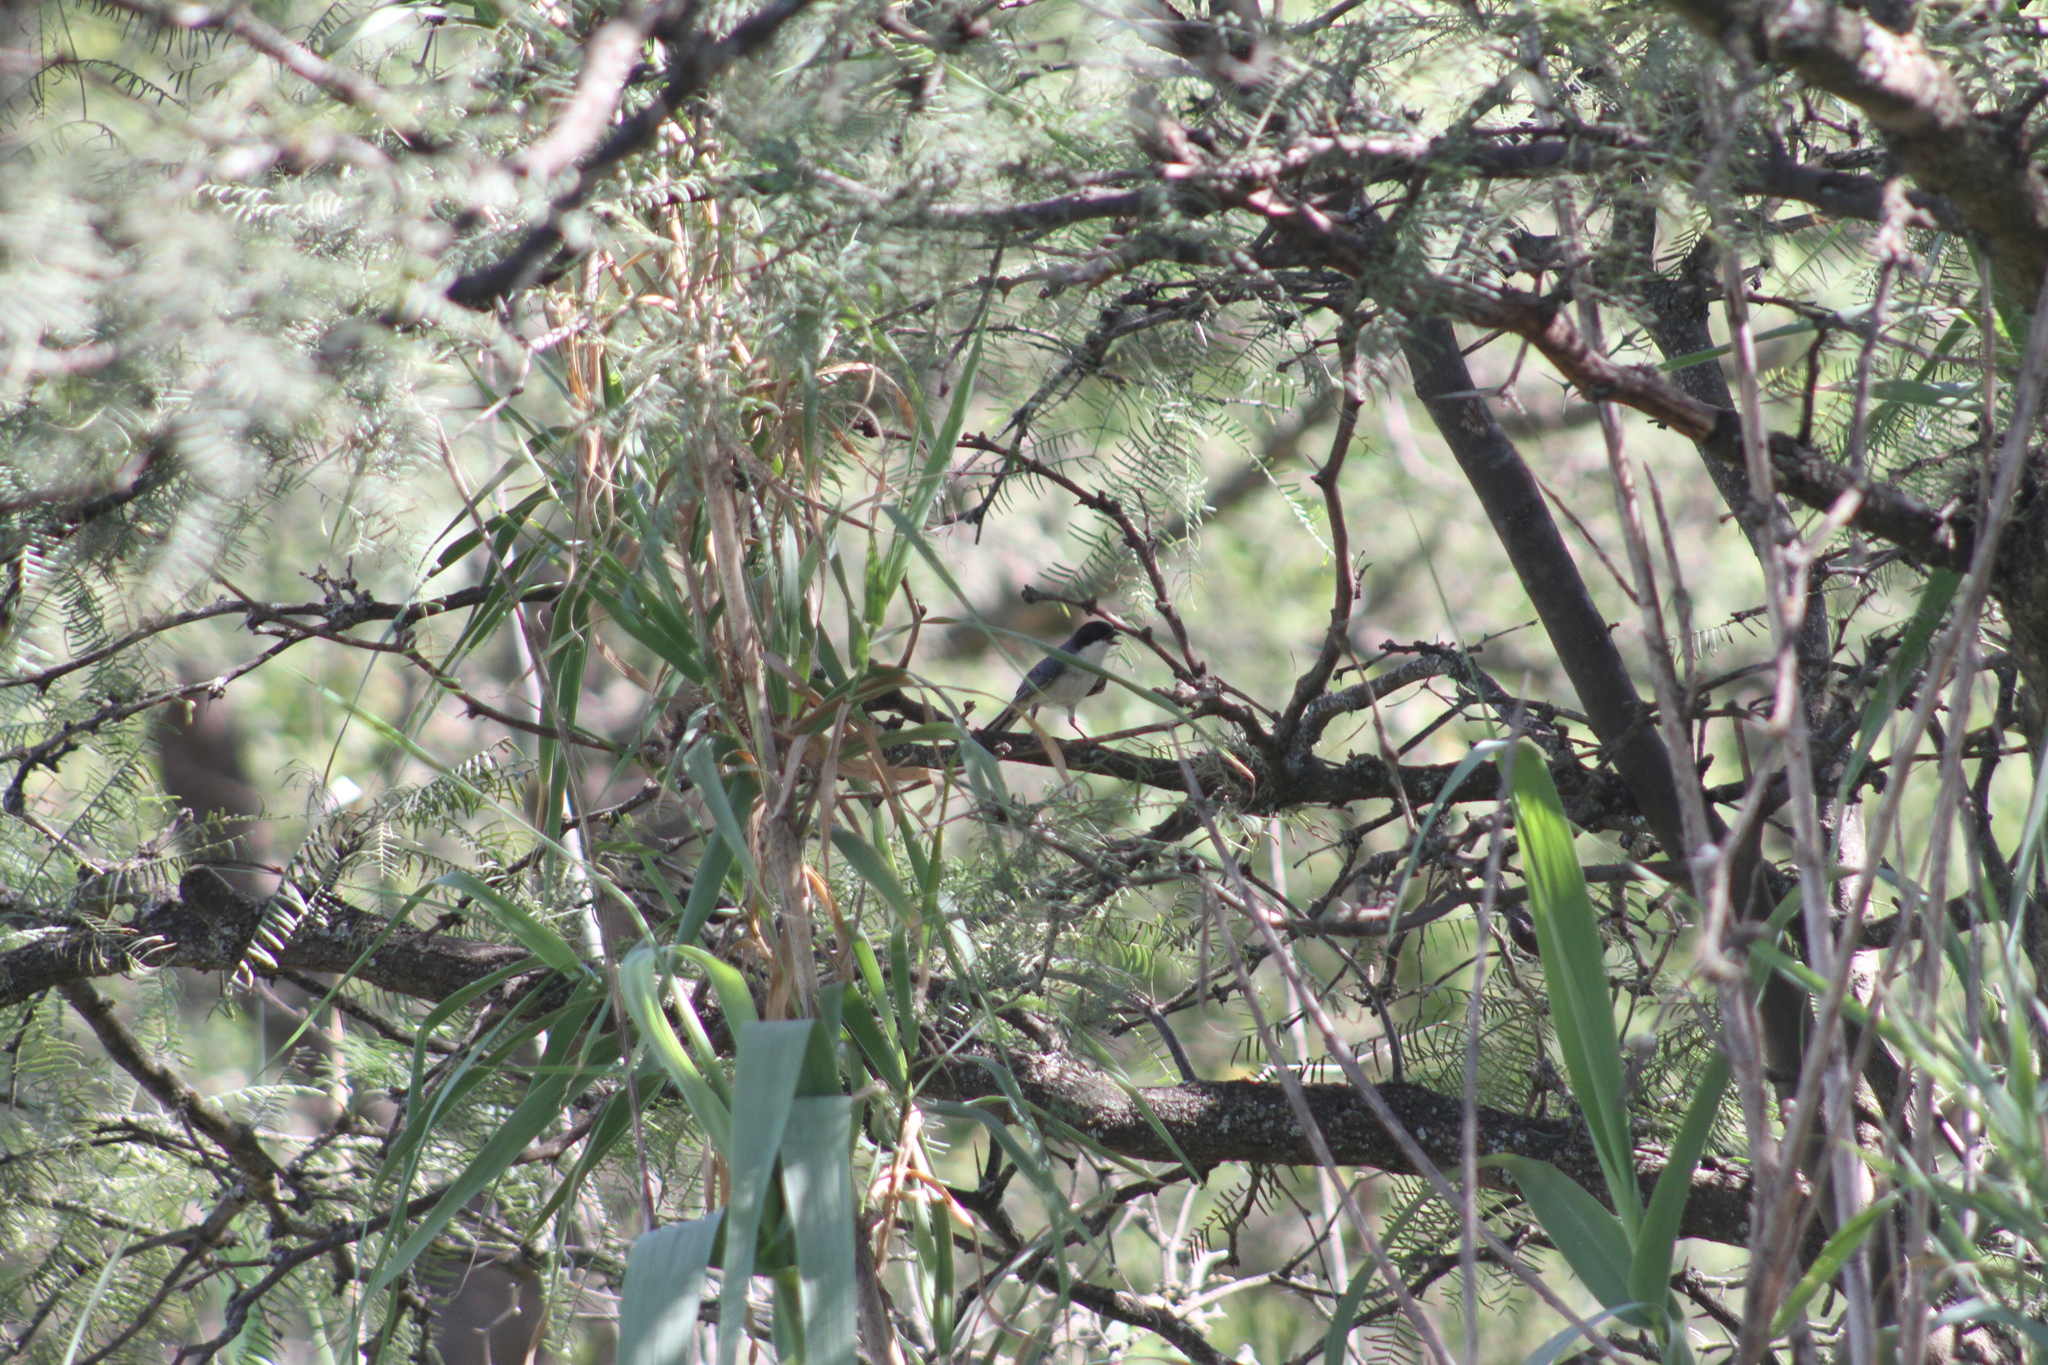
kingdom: Animalia
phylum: Chordata
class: Aves
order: Passeriformes
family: Thraupidae
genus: Microspingus
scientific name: Microspingus melanoleucus
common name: Black-capped warbling-finch
